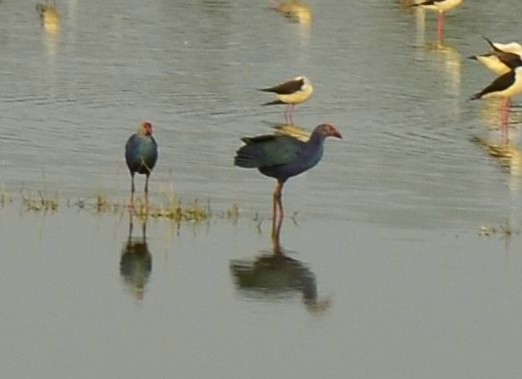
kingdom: Animalia
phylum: Chordata
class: Aves
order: Gruiformes
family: Rallidae
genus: Porphyrio
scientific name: Porphyrio porphyrio
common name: Purple swamphen
